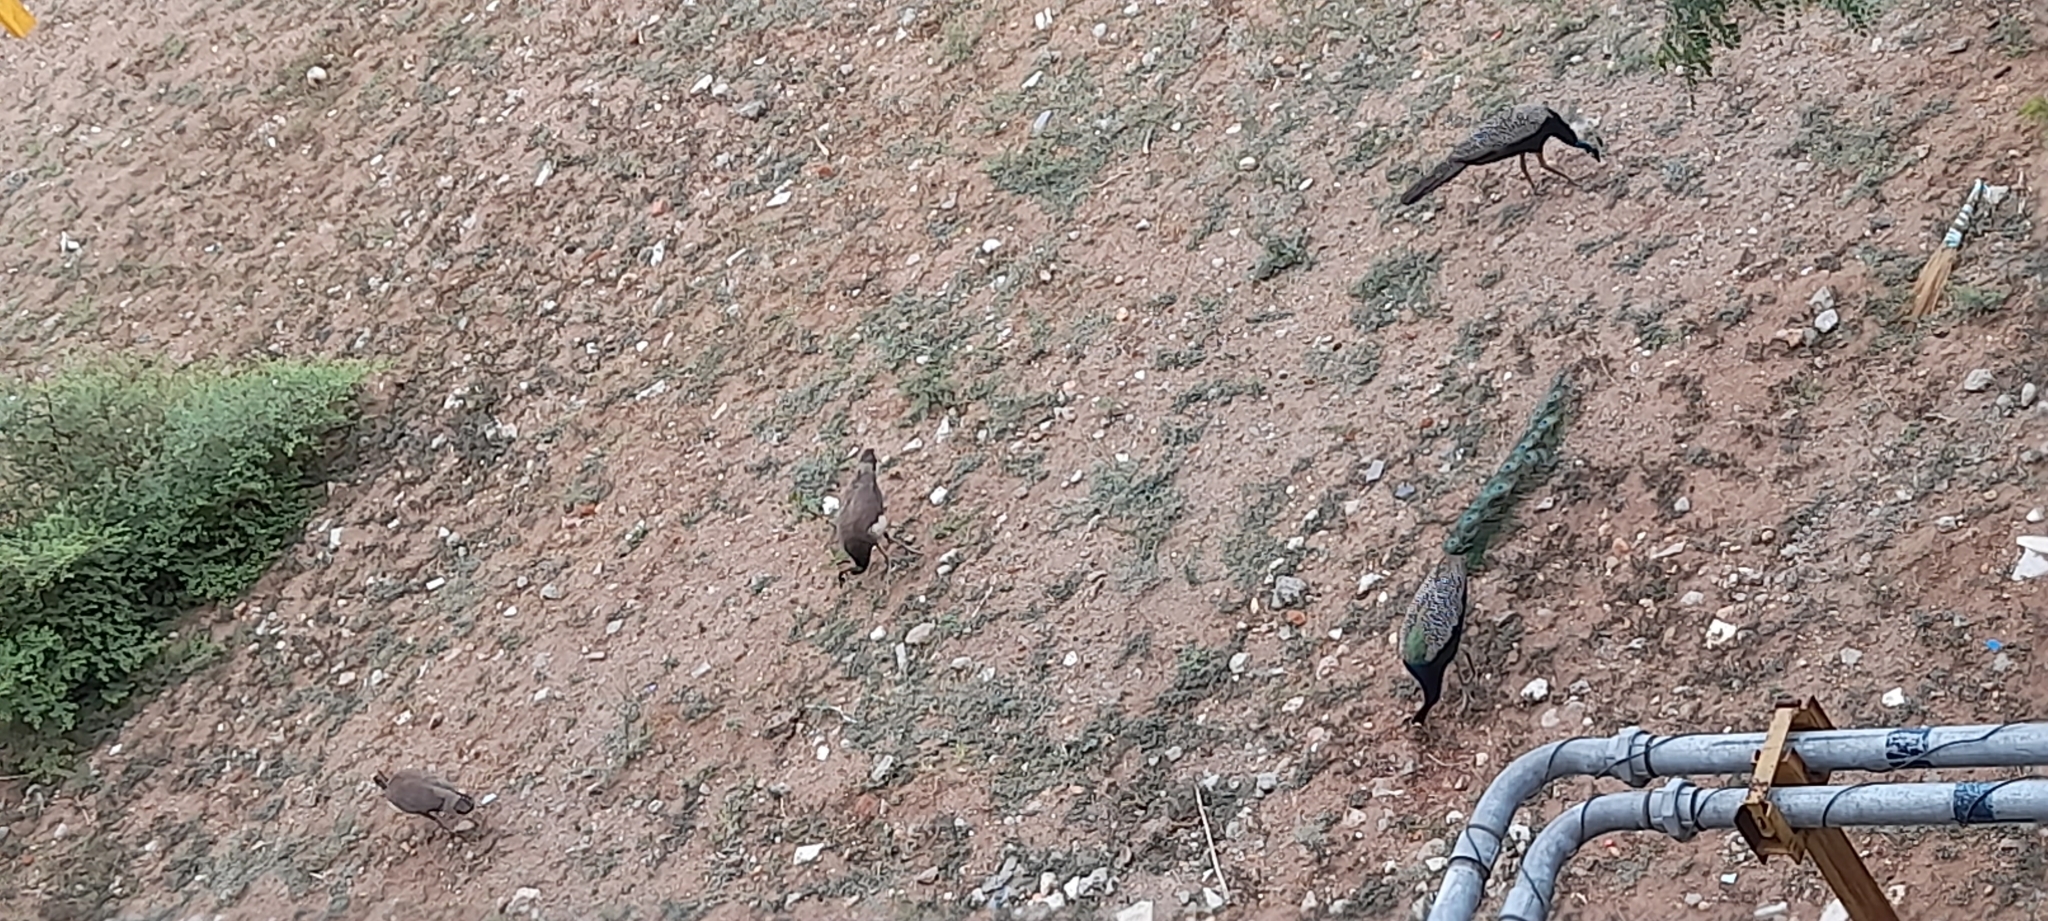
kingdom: Animalia
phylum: Chordata
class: Aves
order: Galliformes
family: Phasianidae
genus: Pavo
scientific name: Pavo cristatus
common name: Indian peafowl
